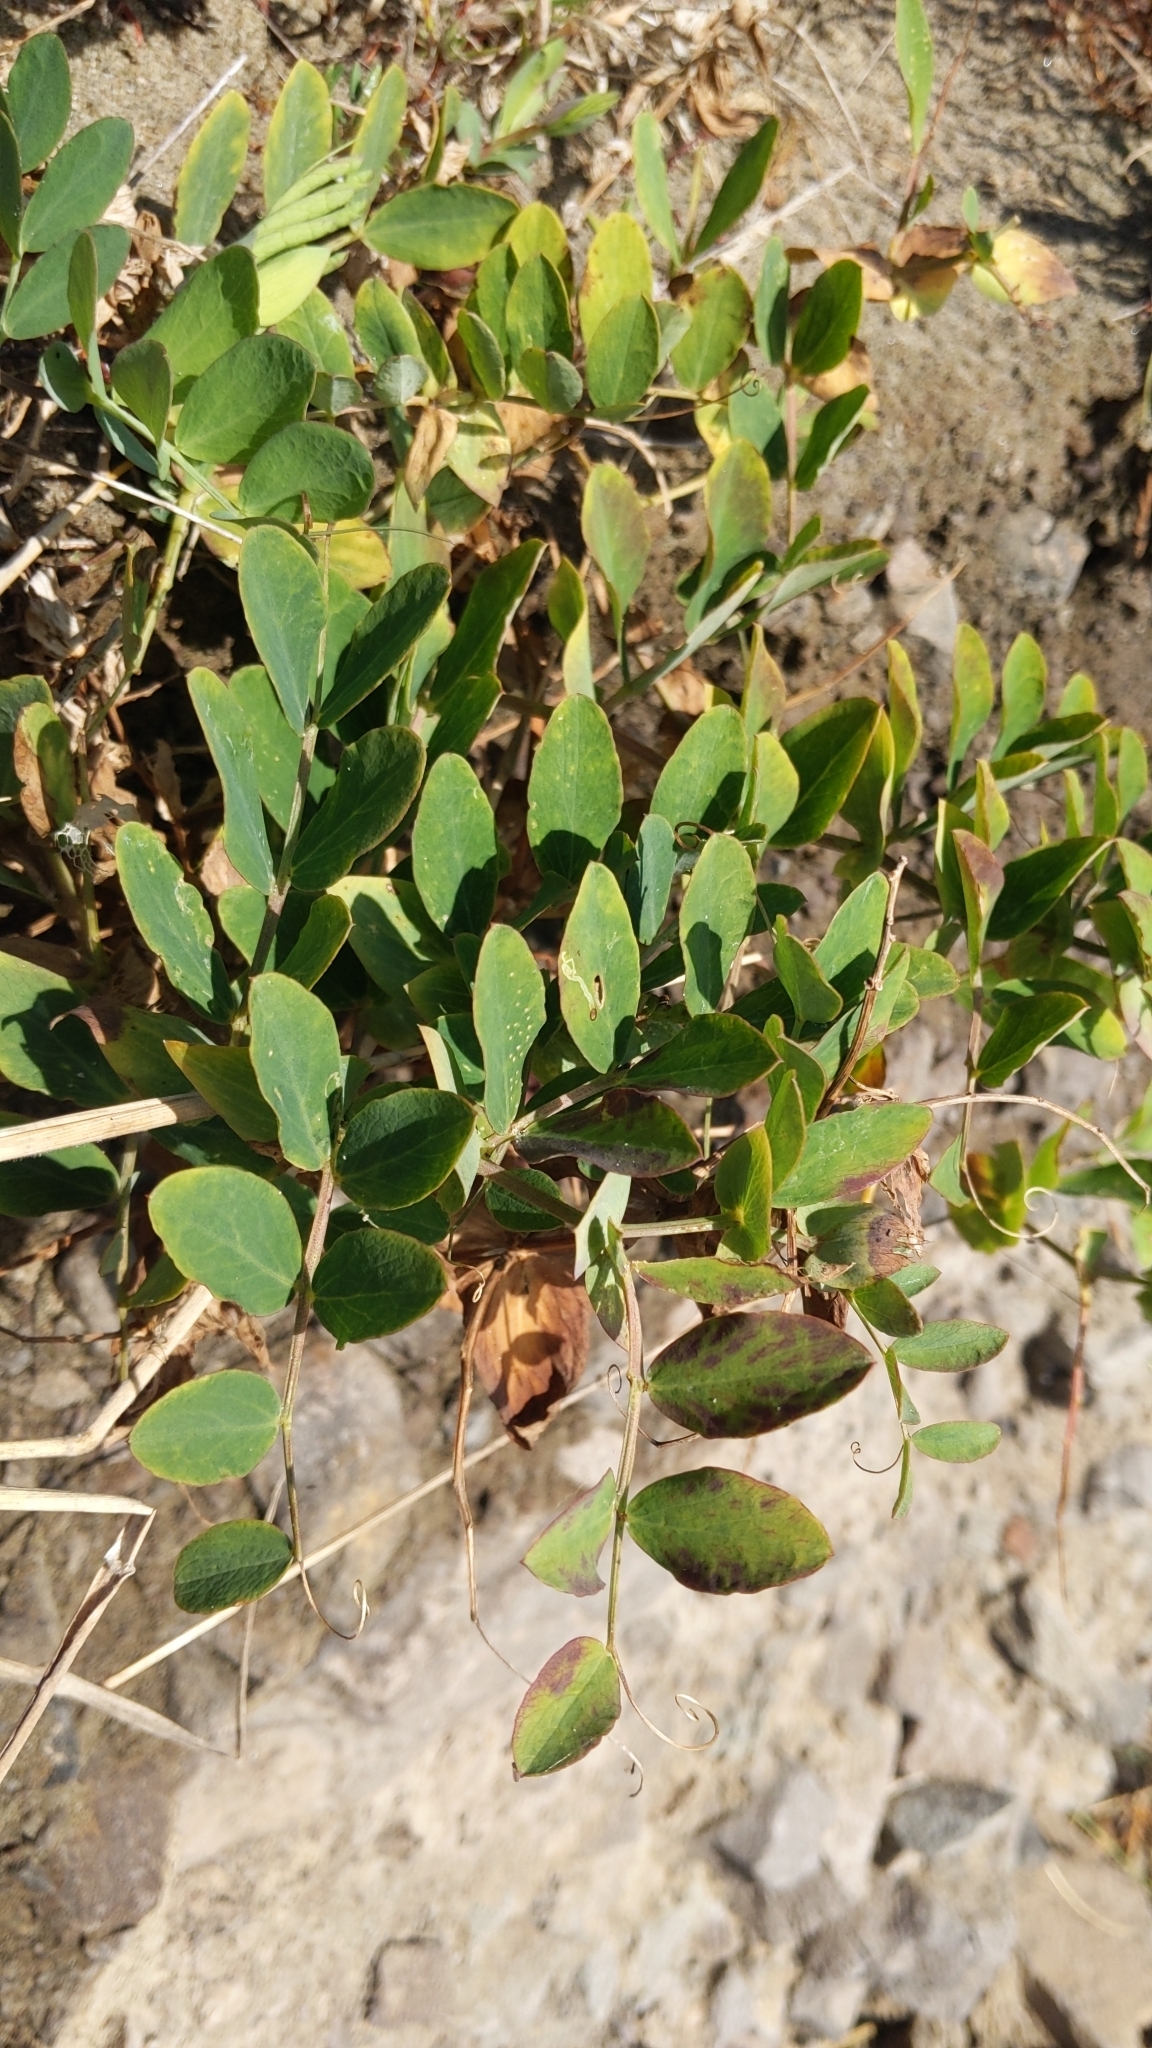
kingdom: Plantae
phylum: Tracheophyta
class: Magnoliopsida
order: Fabales
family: Fabaceae
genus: Lathyrus
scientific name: Lathyrus japonicus
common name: Sea pea
